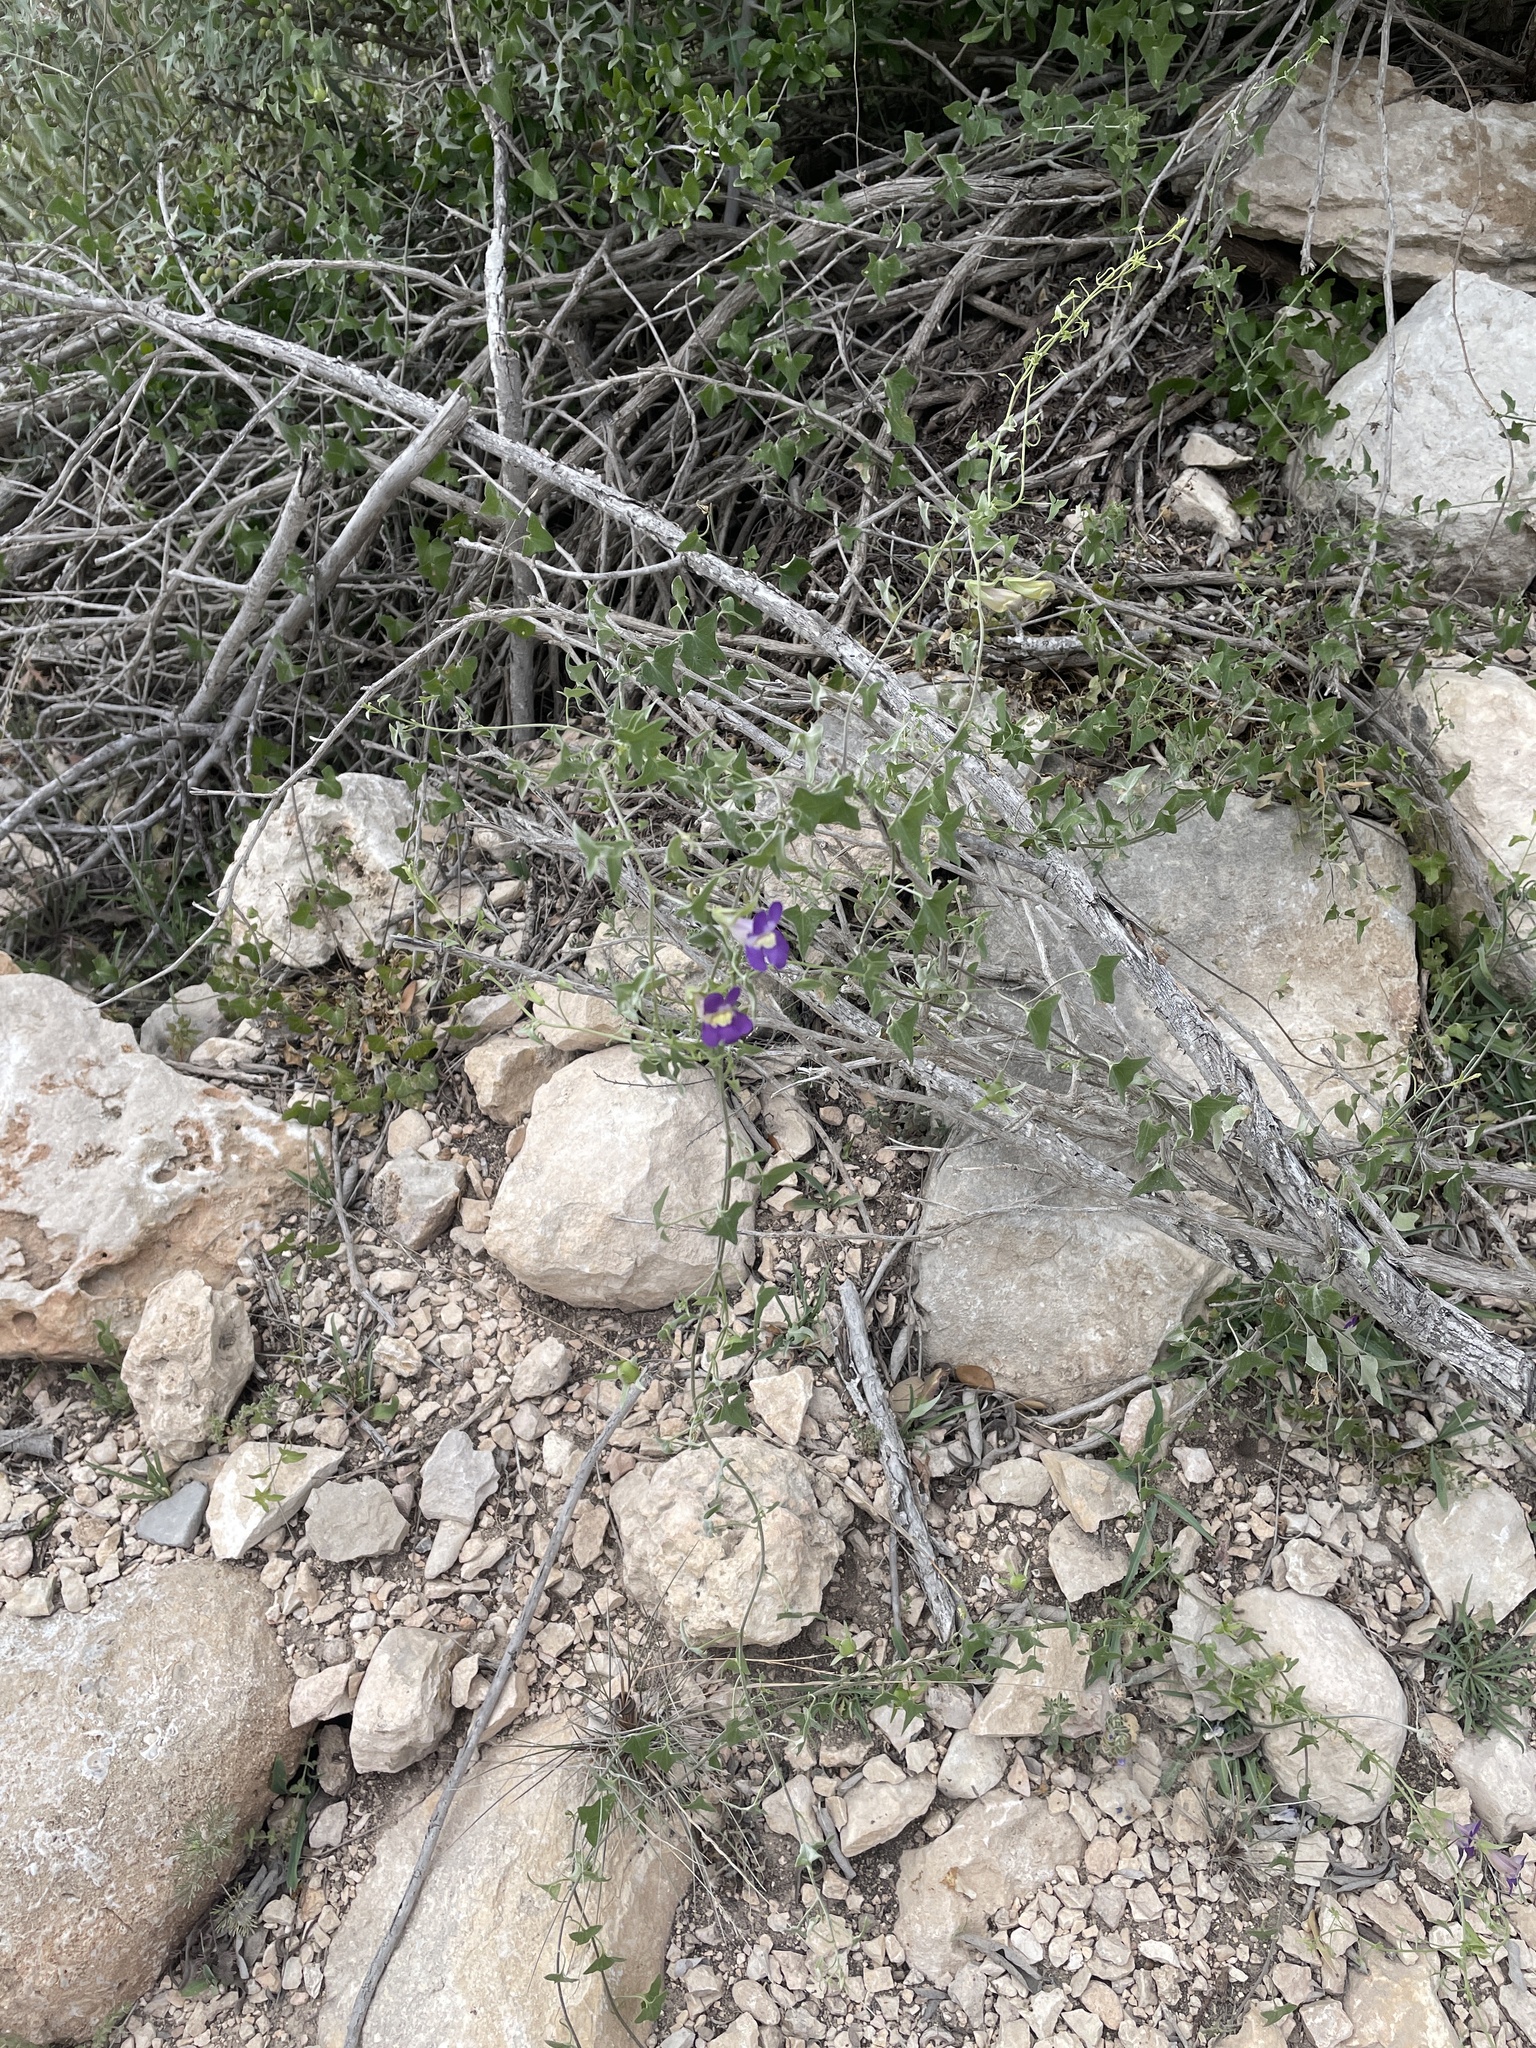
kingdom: Plantae
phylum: Tracheophyta
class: Magnoliopsida
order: Lamiales
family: Plantaginaceae
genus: Maurandella
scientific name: Maurandella antirrhiniflora
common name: Violet twining-snapdragon
